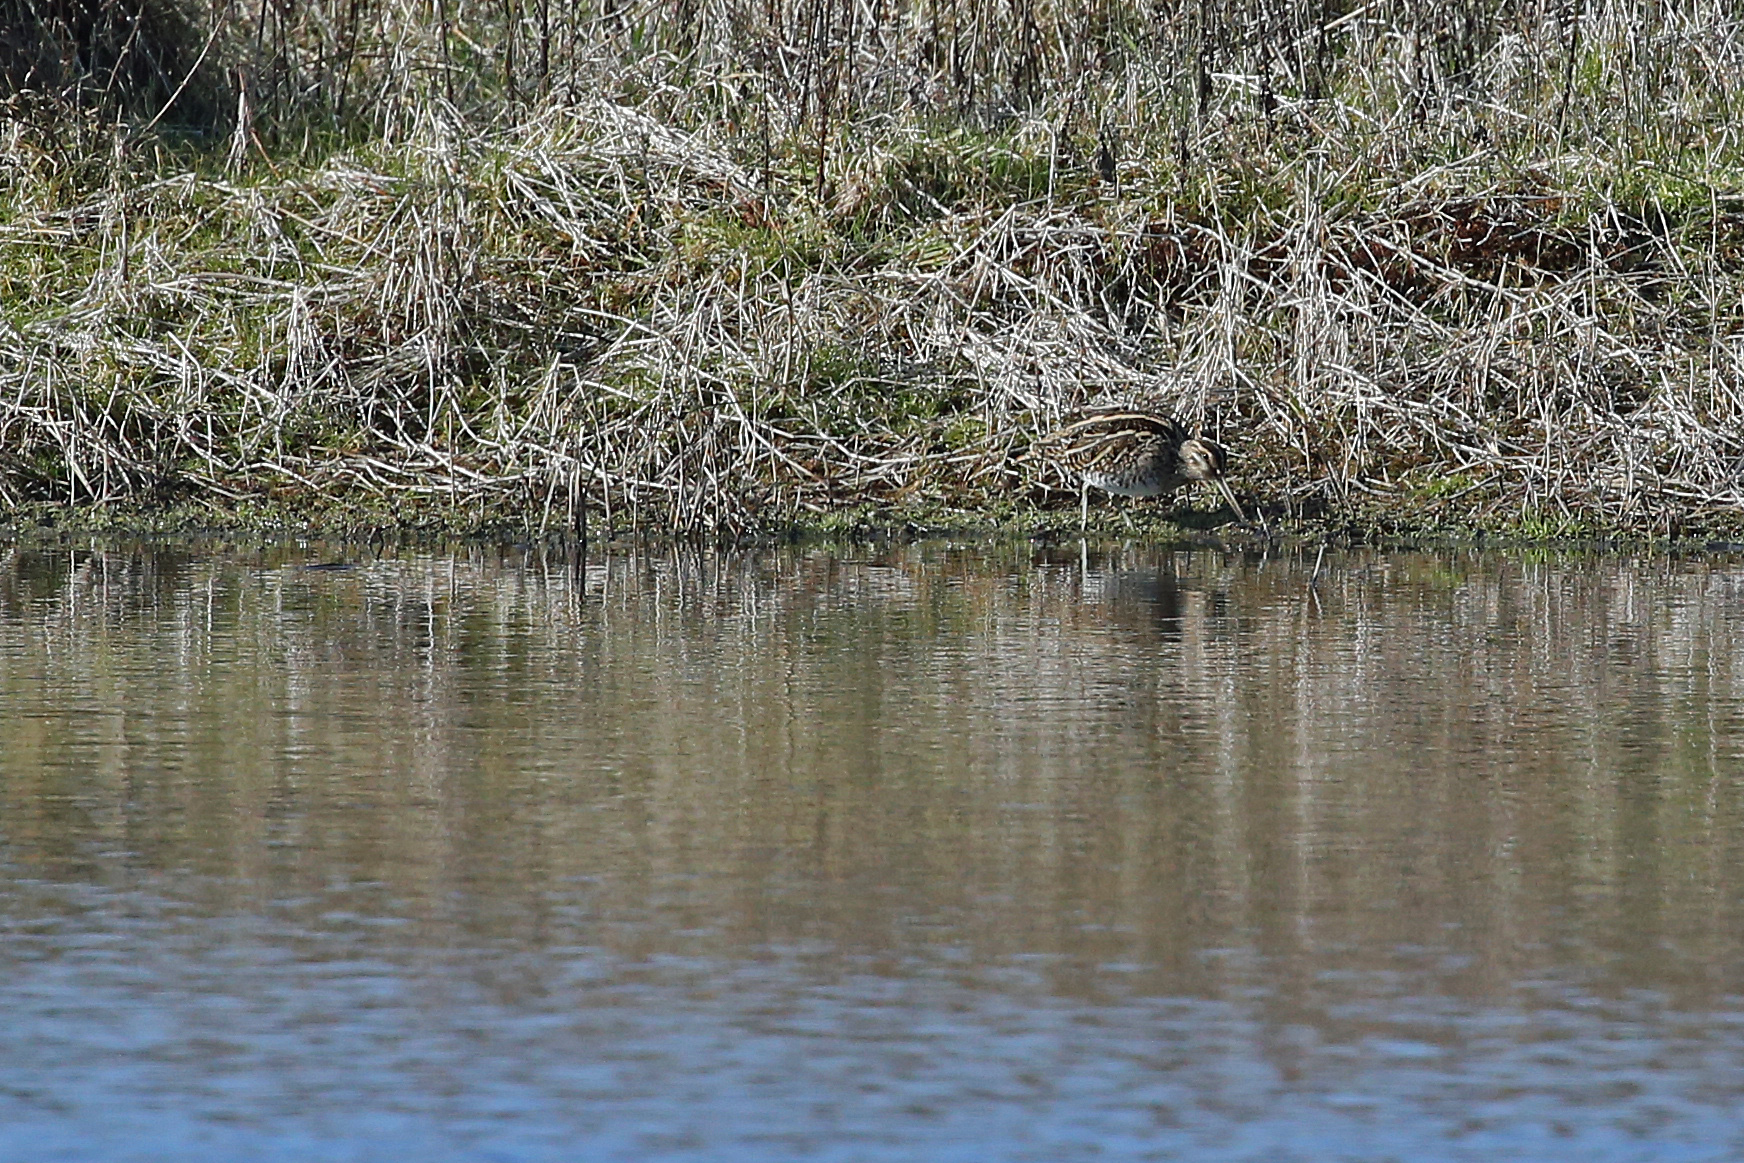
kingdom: Animalia
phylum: Chordata
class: Aves
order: Charadriiformes
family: Scolopacidae
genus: Gallinago
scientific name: Gallinago gallinago
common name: Common snipe
